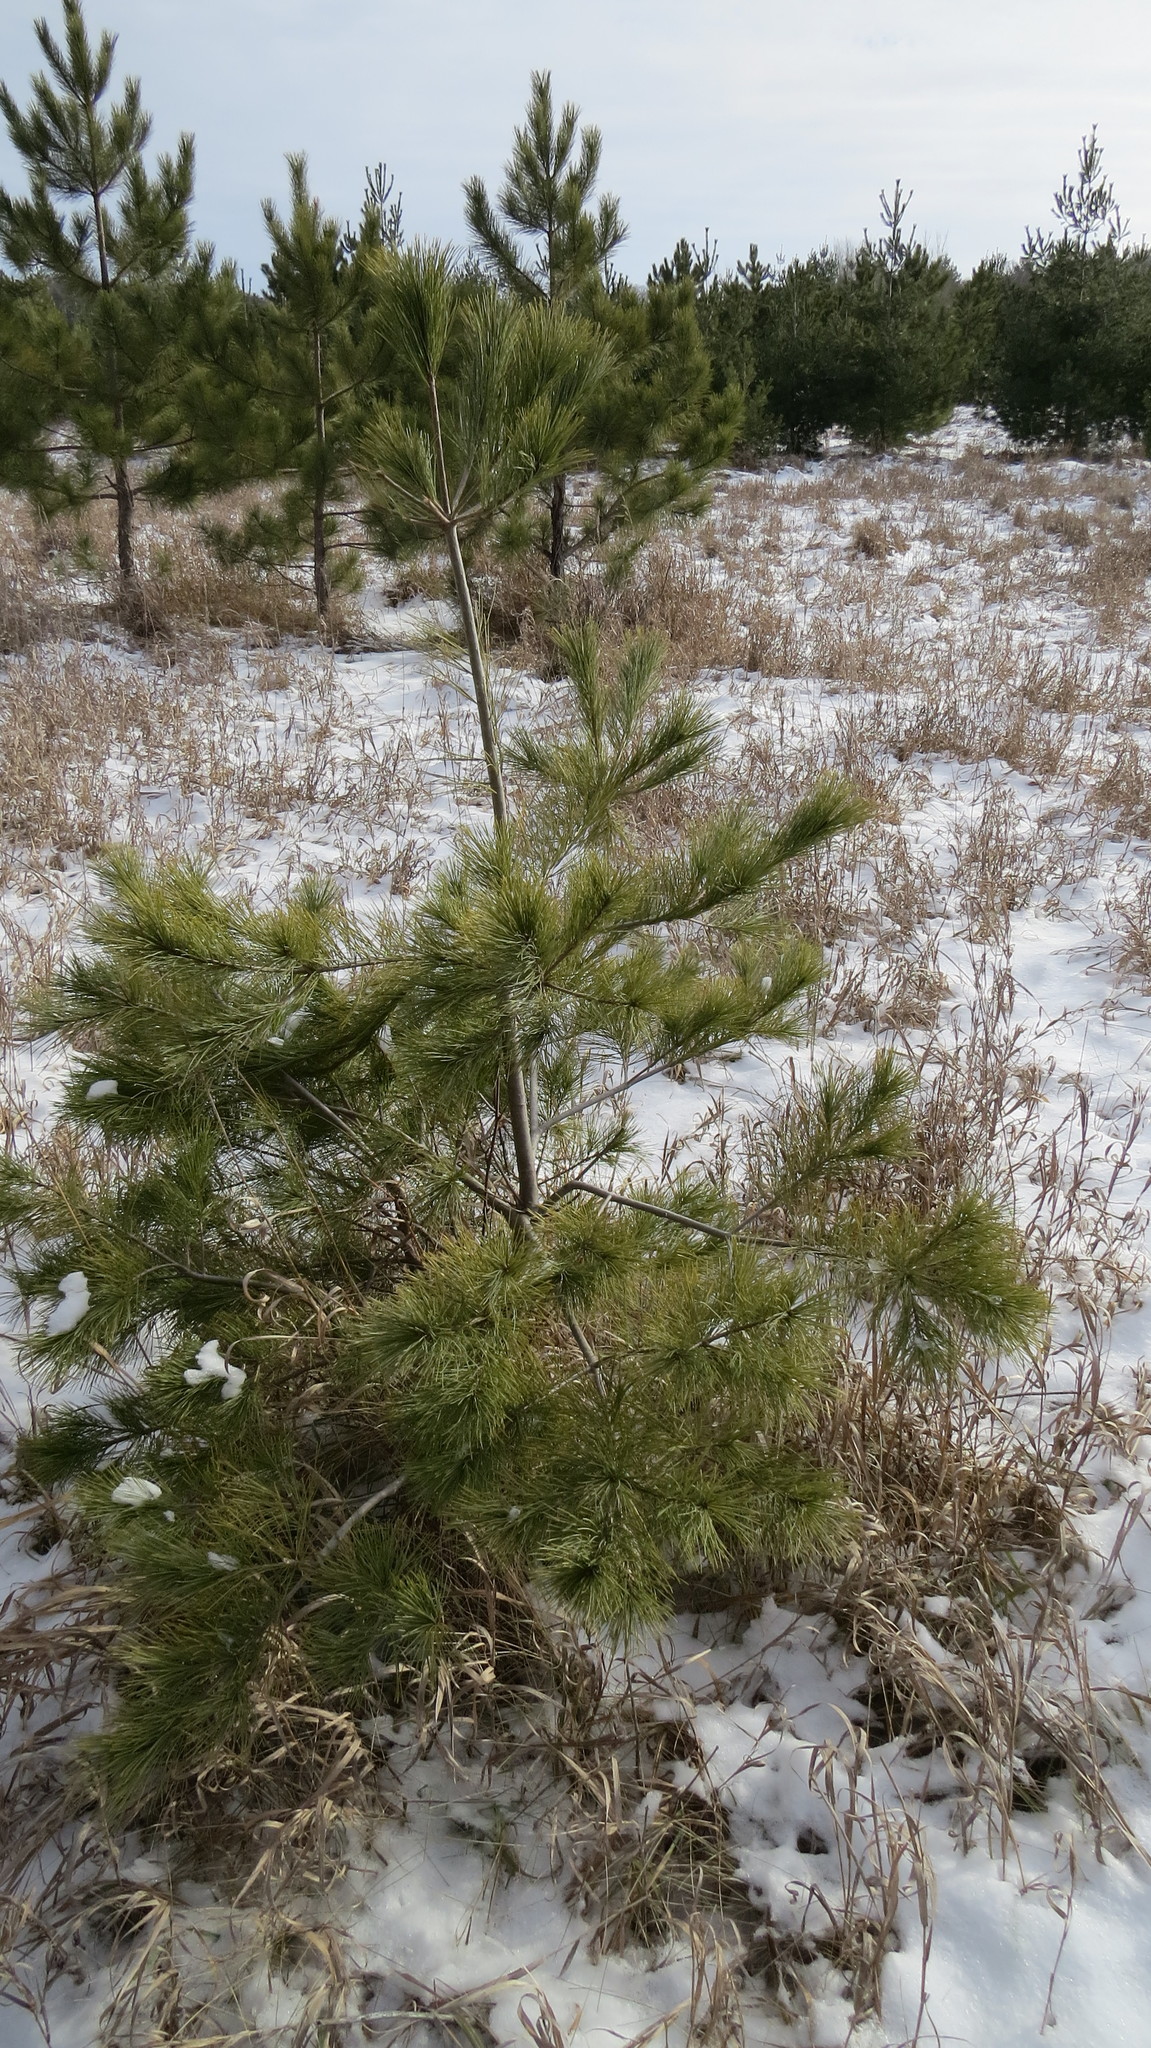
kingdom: Plantae
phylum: Tracheophyta
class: Pinopsida
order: Pinales
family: Pinaceae
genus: Pinus
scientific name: Pinus strobus
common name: Weymouth pine
